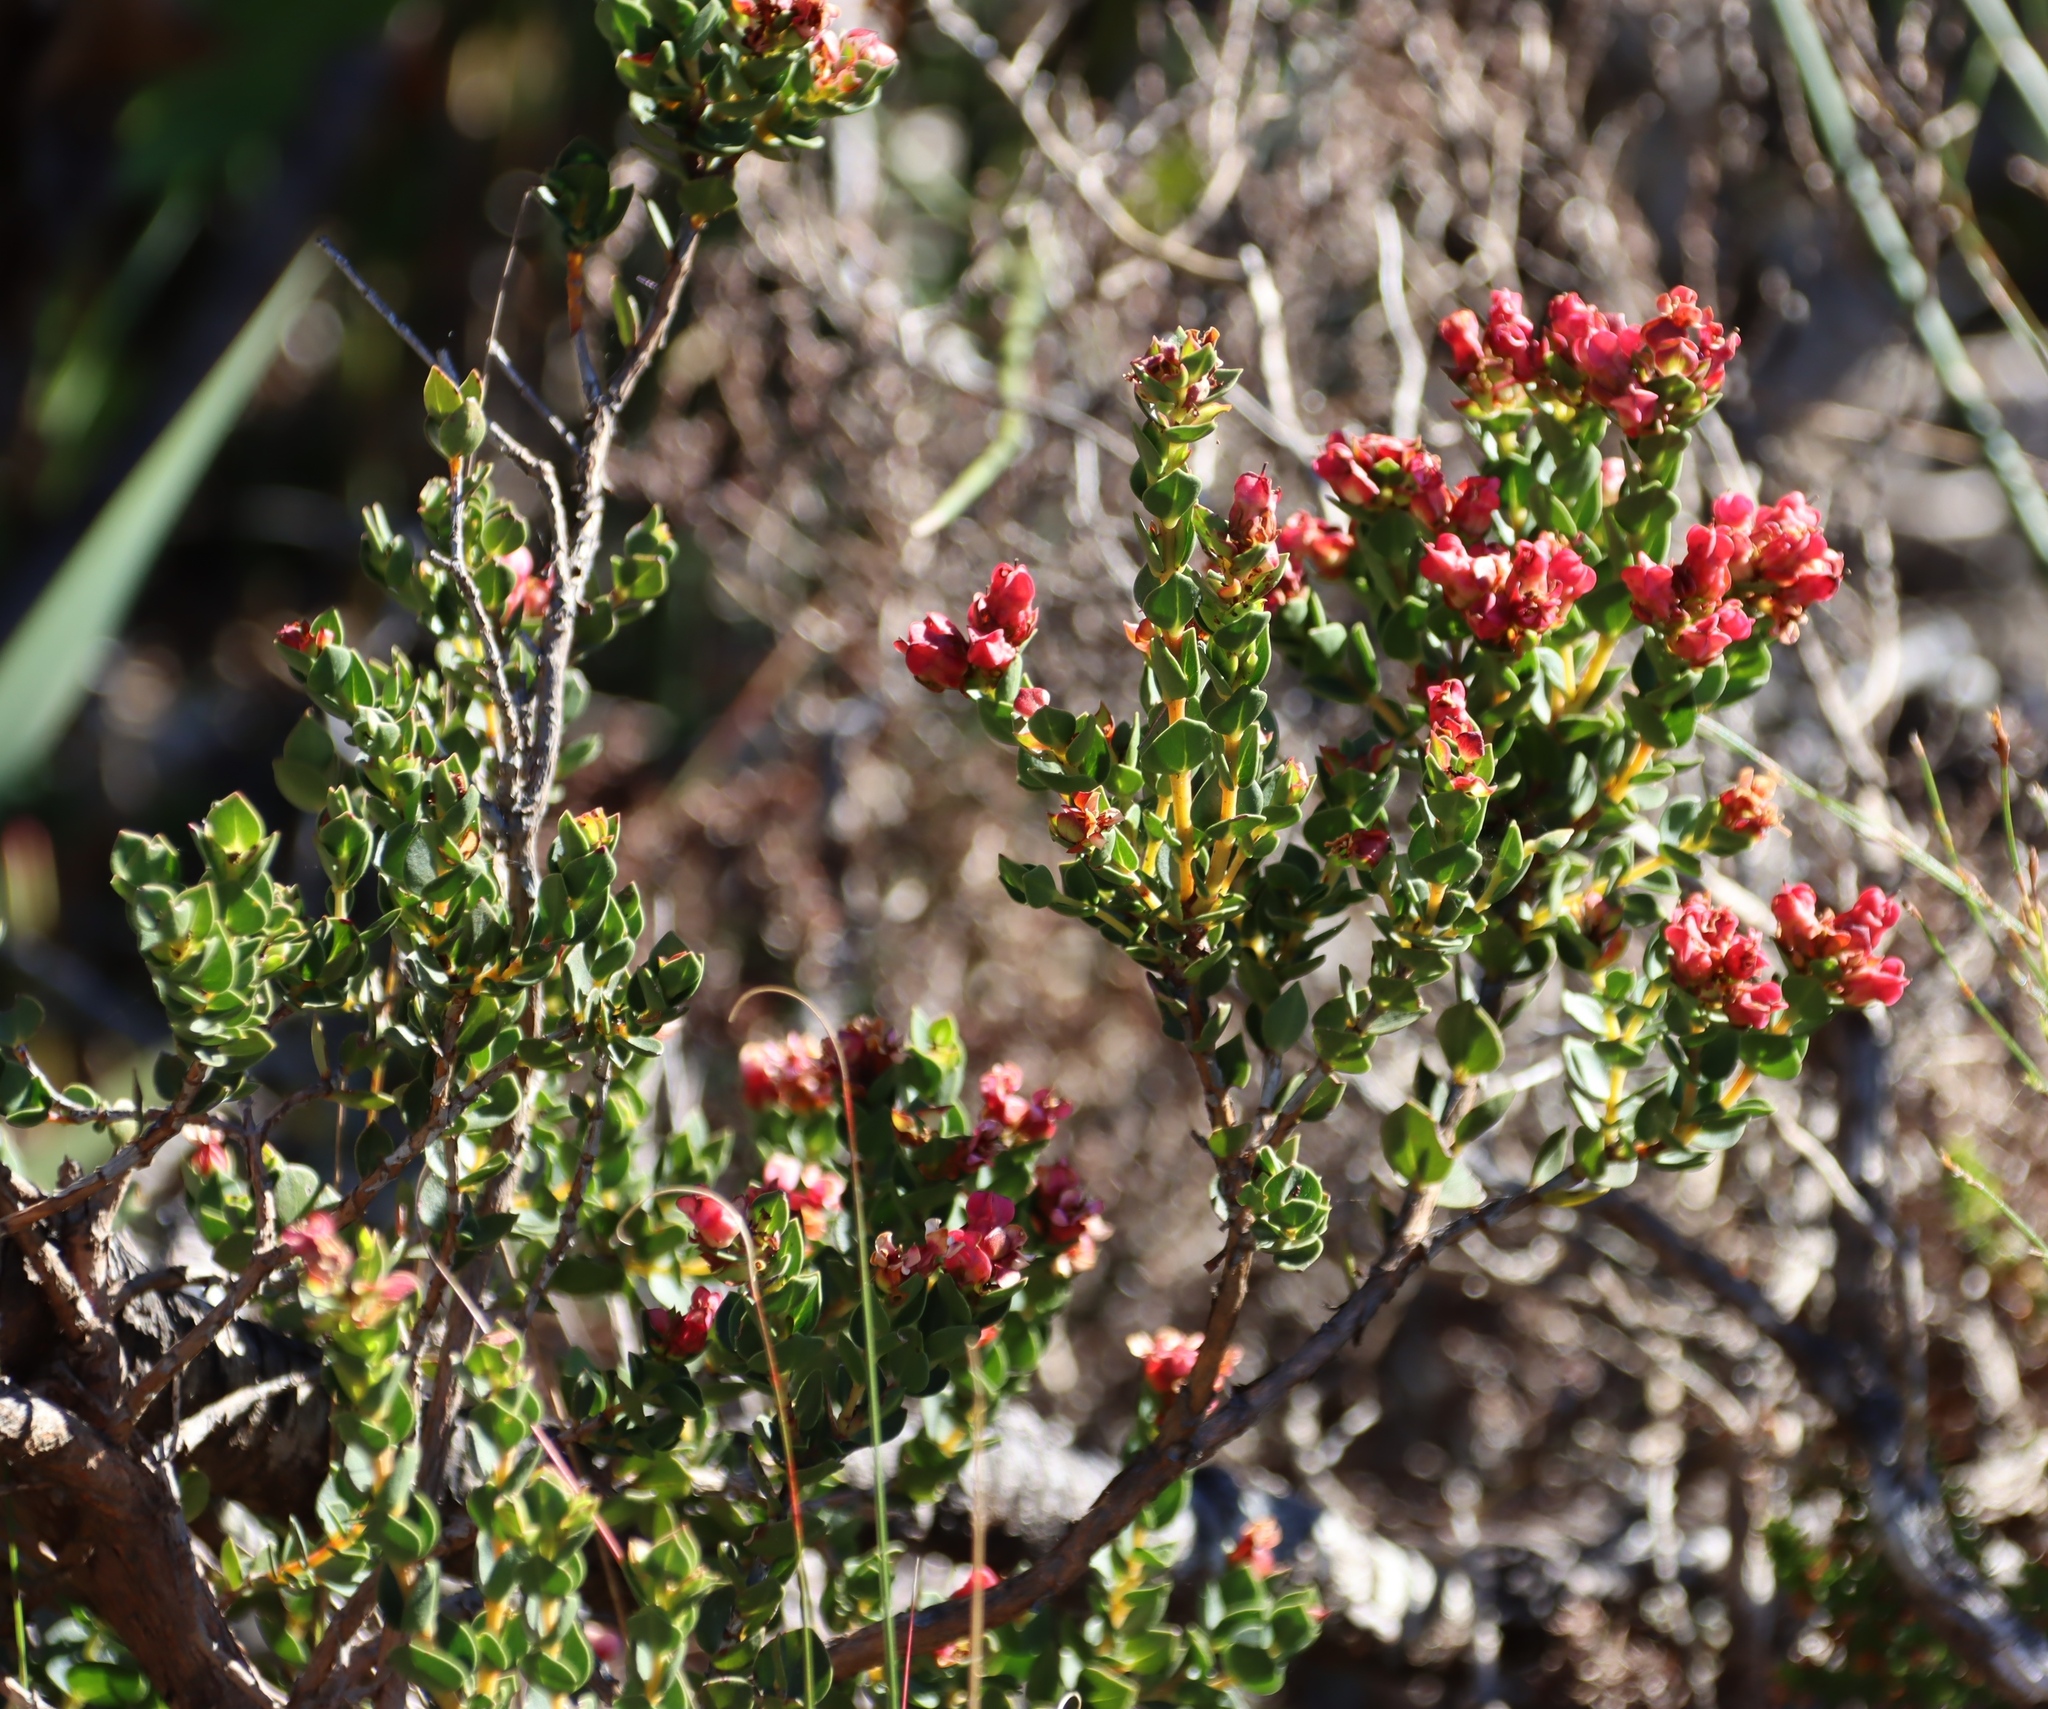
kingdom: Plantae
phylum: Tracheophyta
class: Magnoliopsida
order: Myrtales
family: Penaeaceae
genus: Brachysiphon
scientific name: Brachysiphon fucatus
